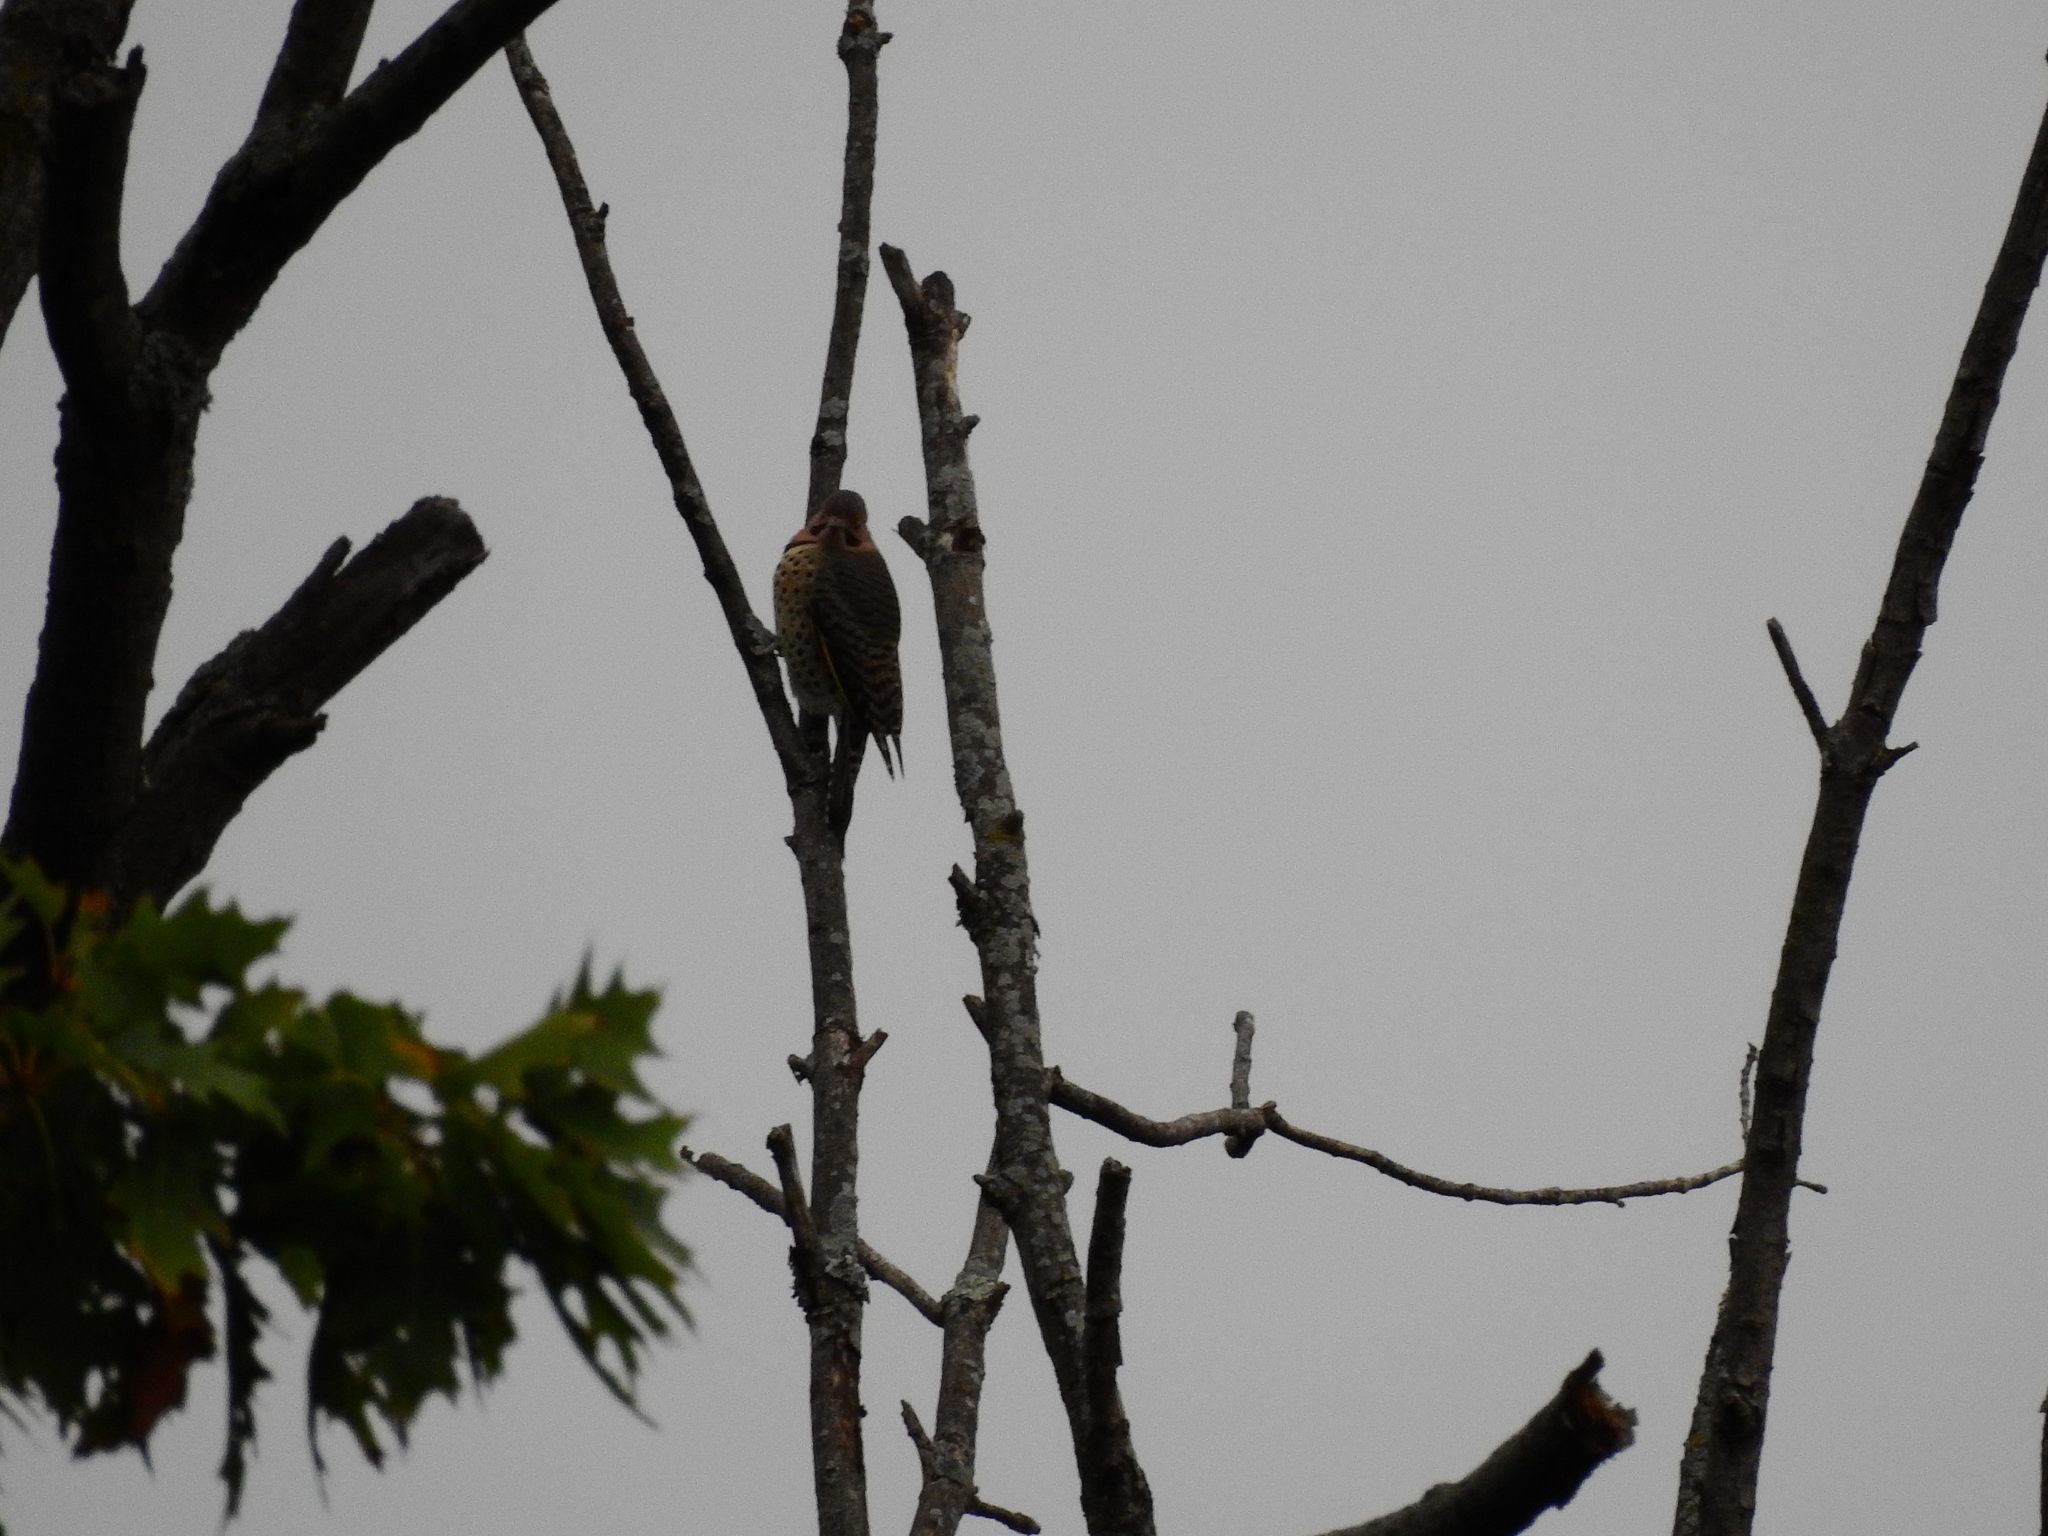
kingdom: Animalia
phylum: Chordata
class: Aves
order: Piciformes
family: Picidae
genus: Colaptes
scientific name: Colaptes auratus
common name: Northern flicker
